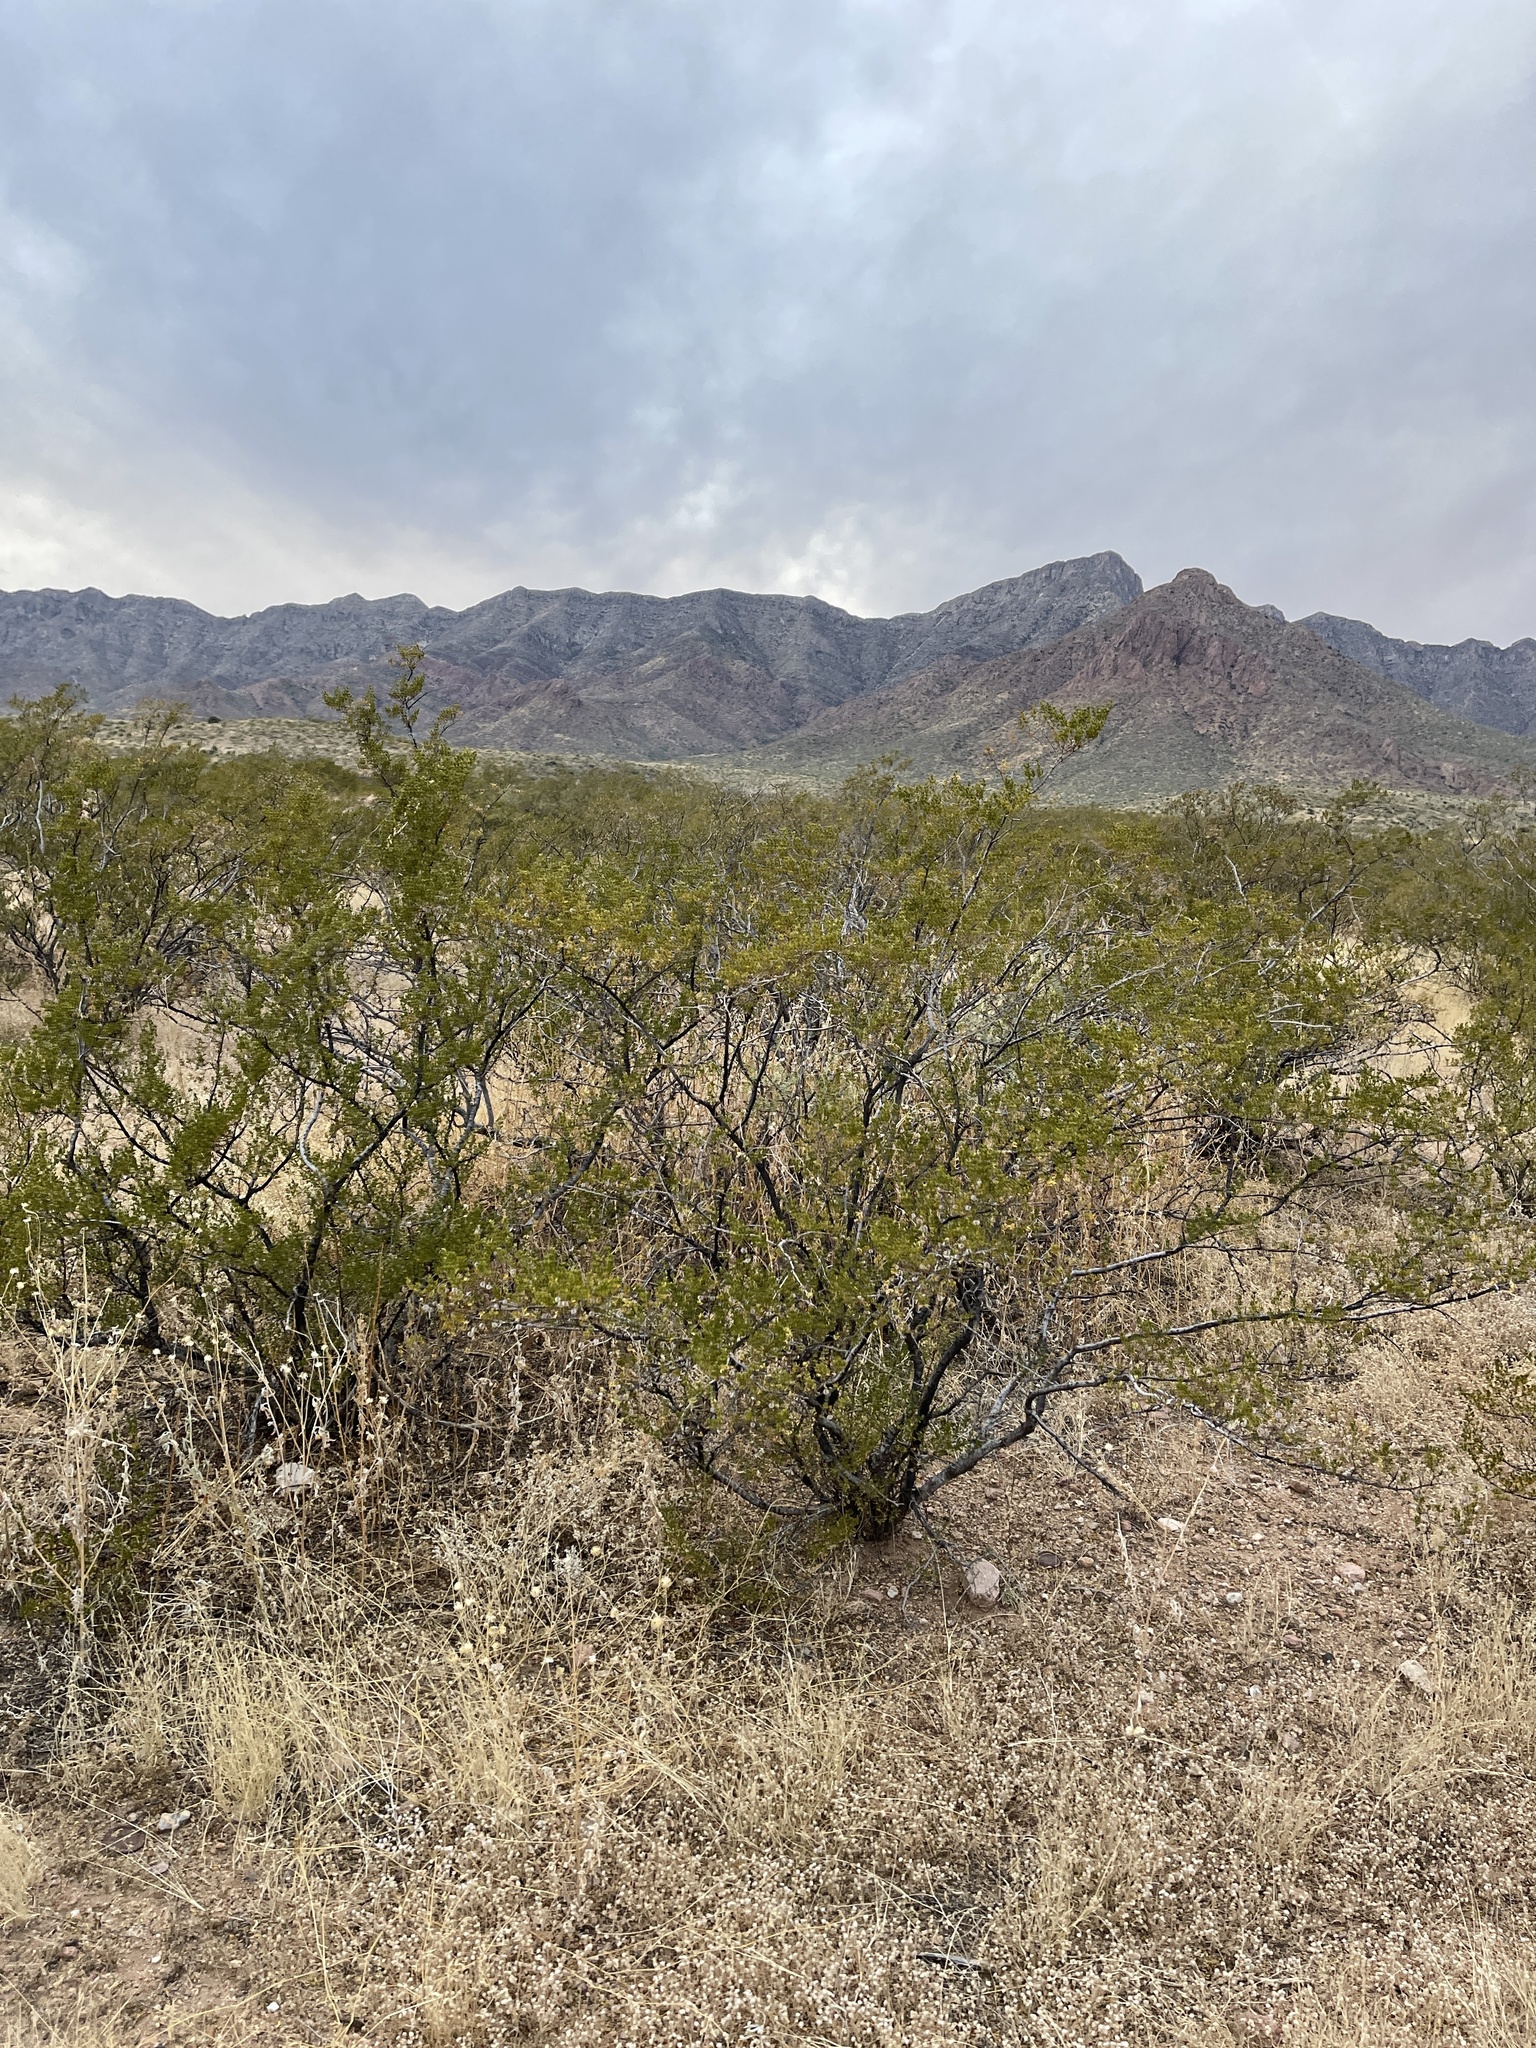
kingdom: Plantae
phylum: Tracheophyta
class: Magnoliopsida
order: Zygophyllales
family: Zygophyllaceae
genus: Larrea
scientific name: Larrea tridentata
